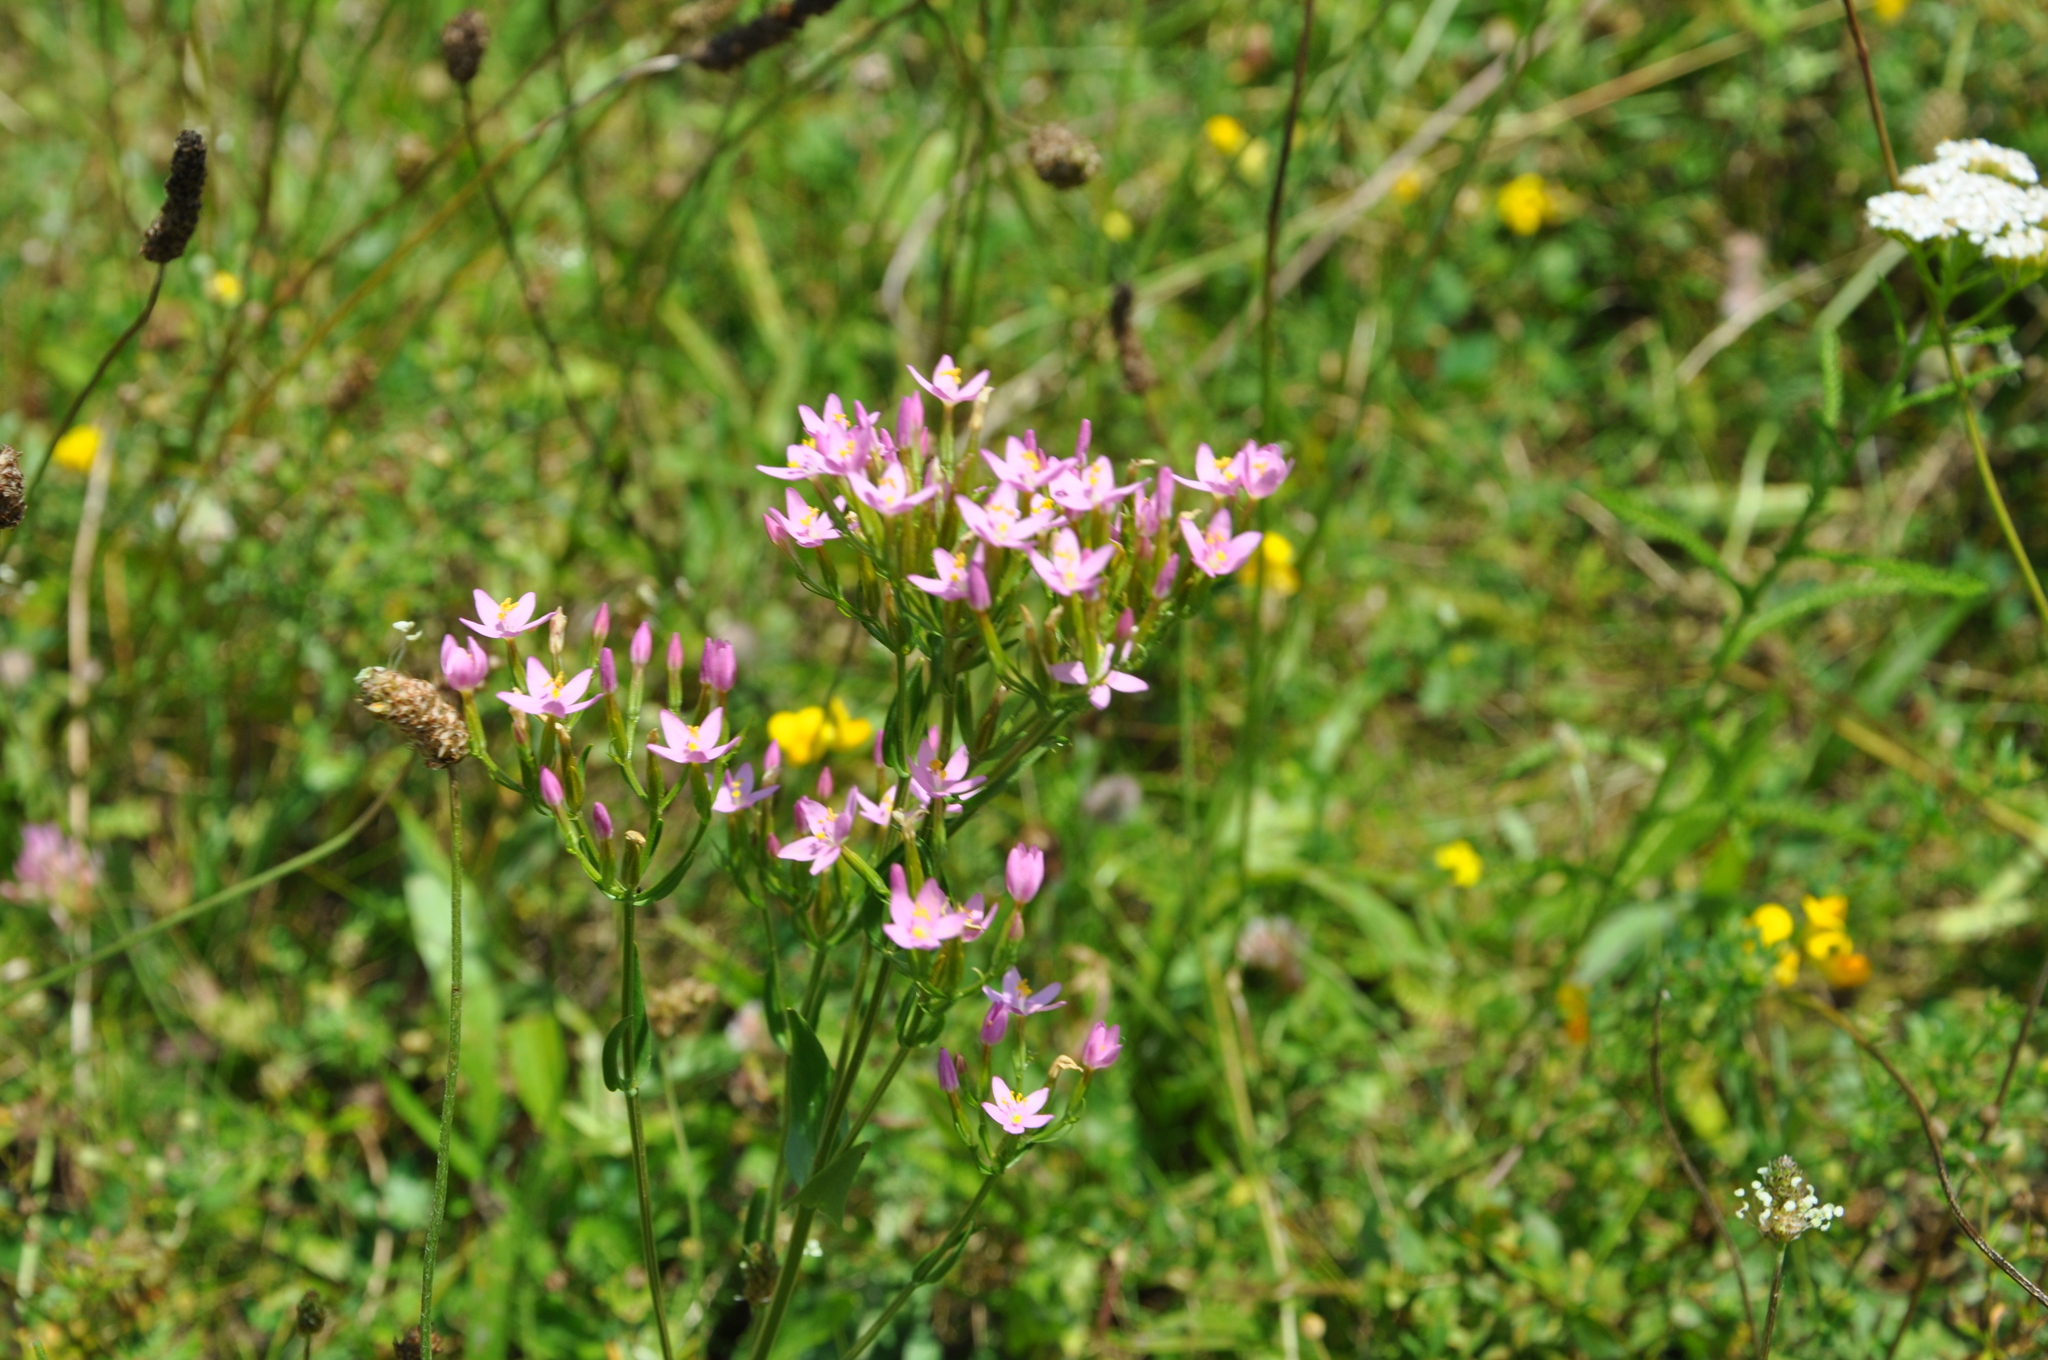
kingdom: Plantae
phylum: Tracheophyta
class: Magnoliopsida
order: Gentianales
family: Gentianaceae
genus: Centaurium
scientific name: Centaurium erythraea
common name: Common centaury
